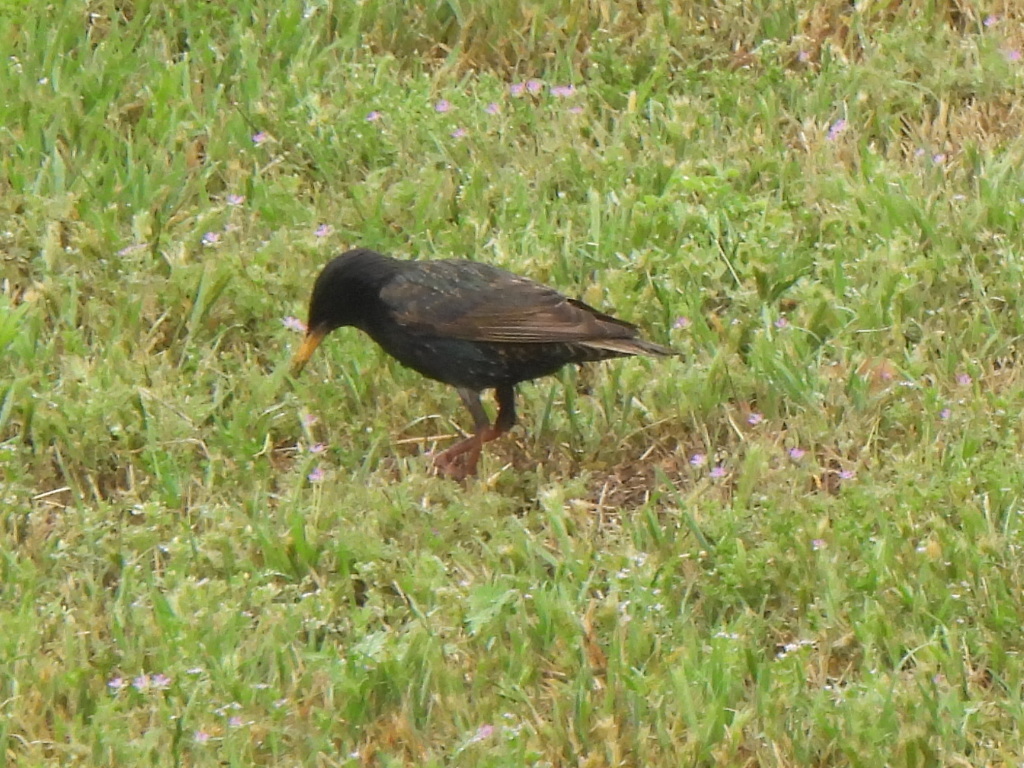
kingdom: Animalia
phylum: Chordata
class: Aves
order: Passeriformes
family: Sturnidae
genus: Sturnus
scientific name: Sturnus vulgaris
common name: Common starling
